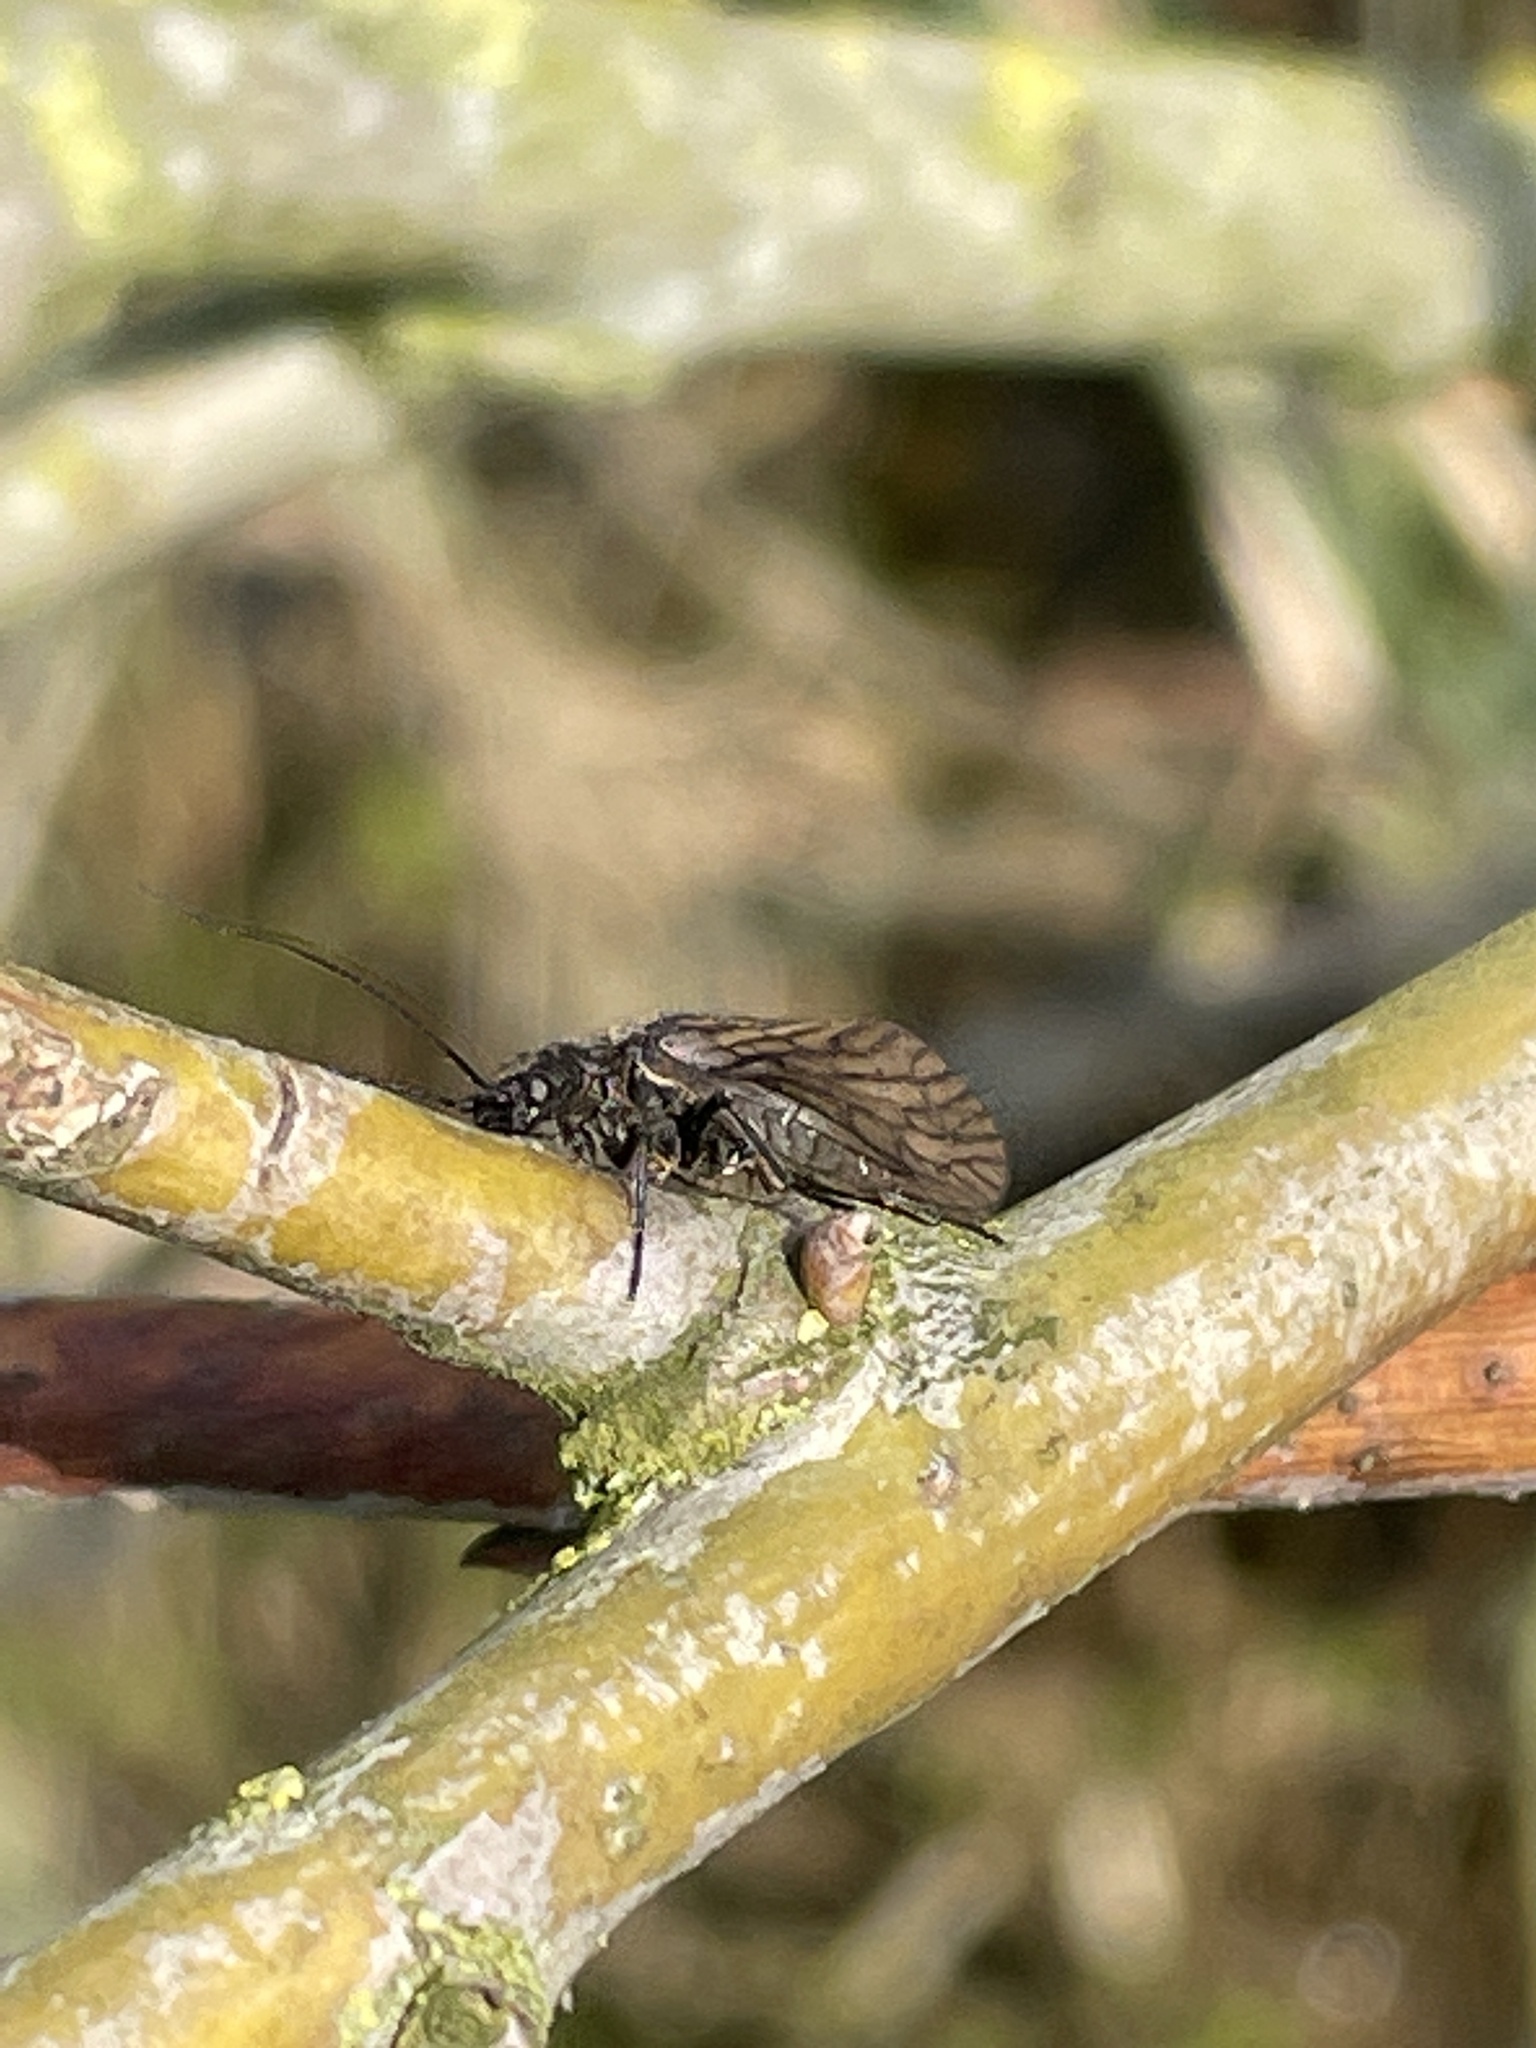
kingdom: Animalia
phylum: Arthropoda
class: Insecta
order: Megaloptera
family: Sialidae
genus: Sialis
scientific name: Sialis
